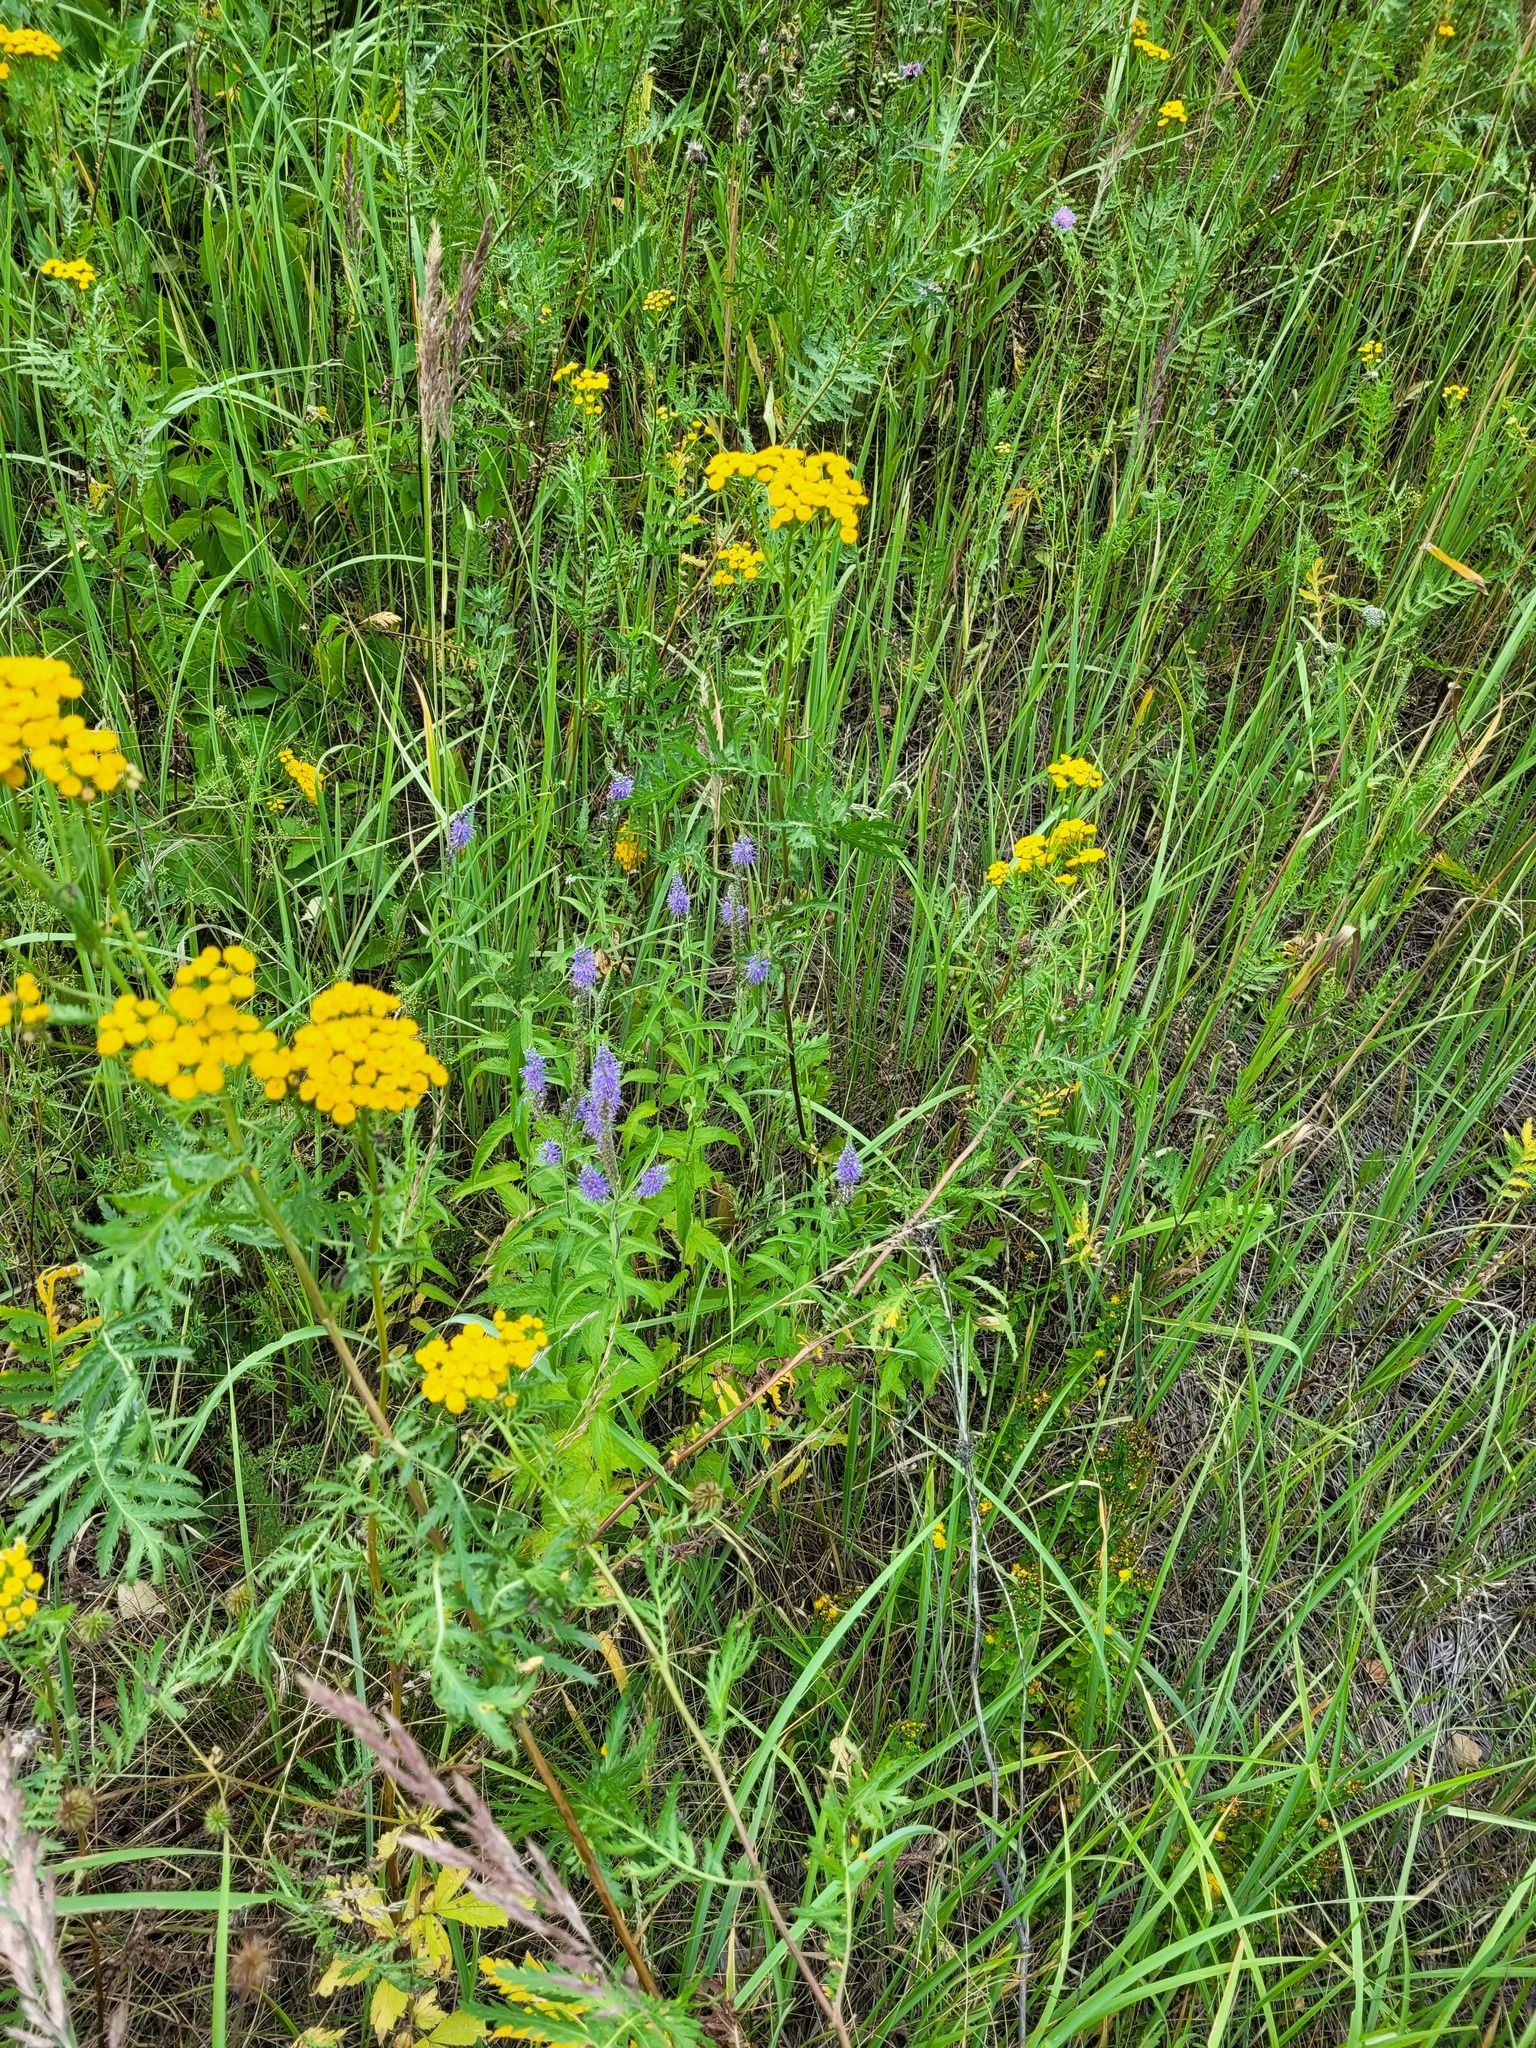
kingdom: Plantae
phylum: Tracheophyta
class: Magnoliopsida
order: Lamiales
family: Plantaginaceae
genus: Veronica
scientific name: Veronica longifolia
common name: Garden speedwell
